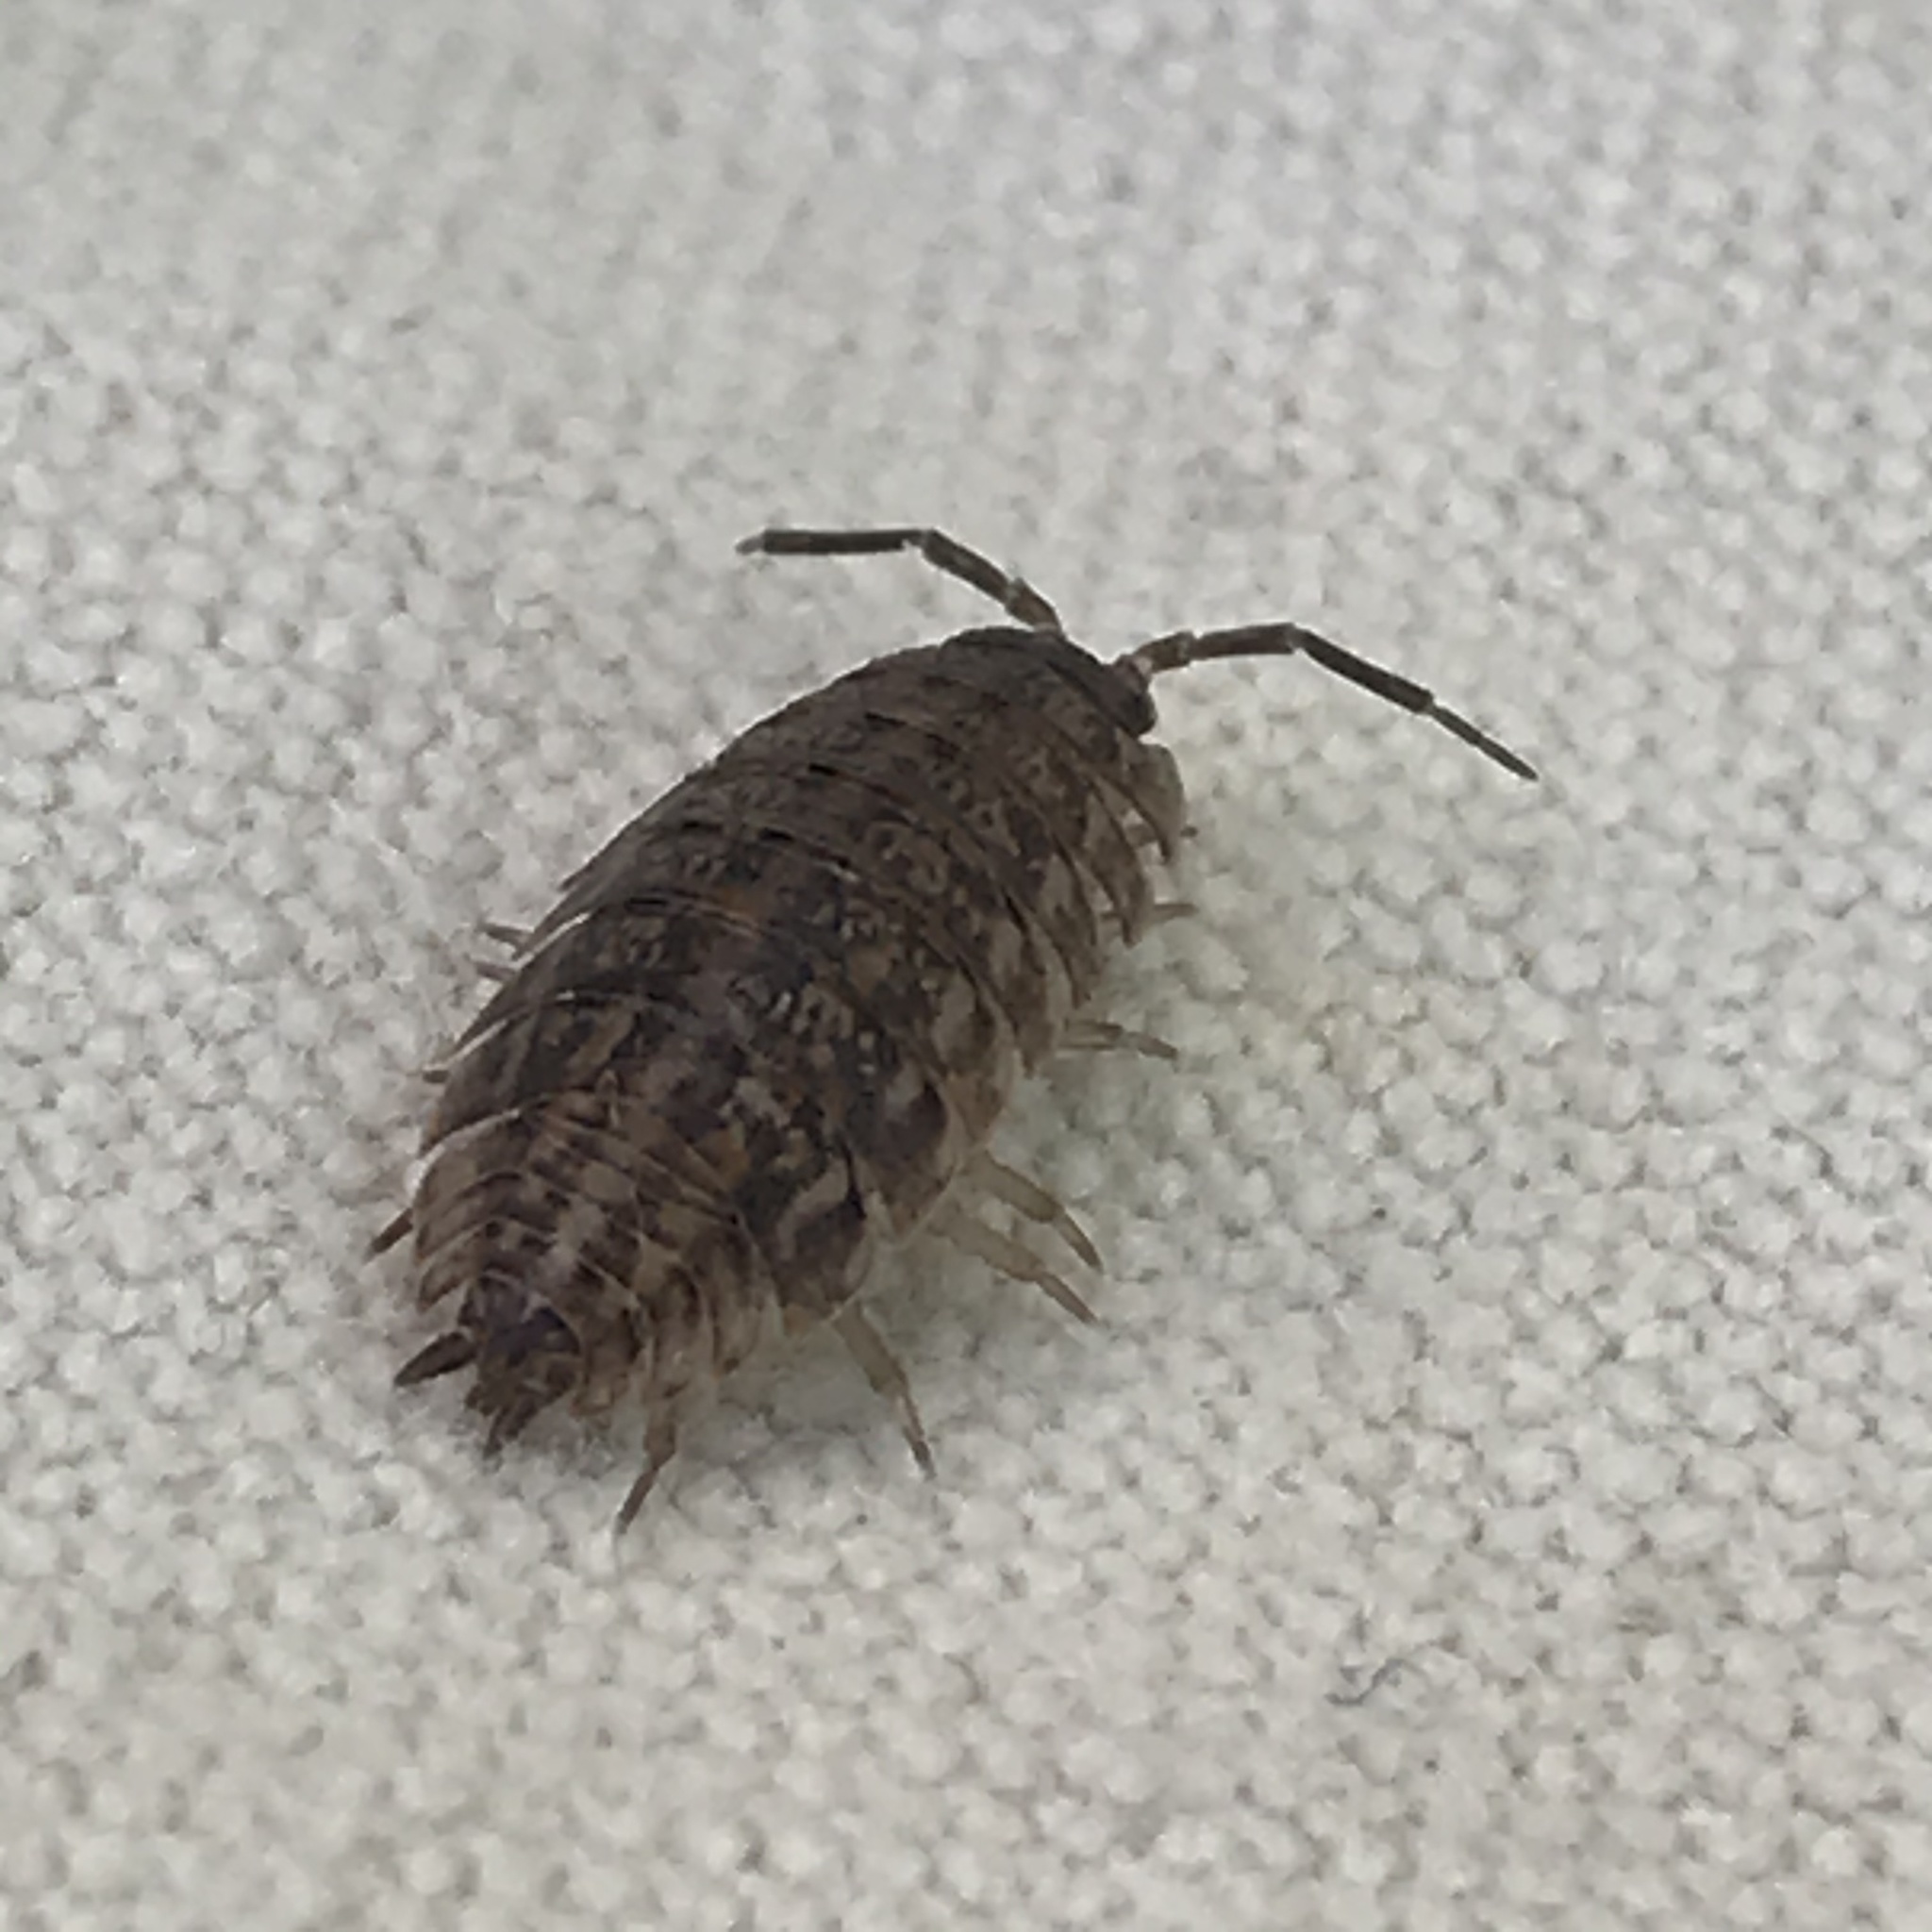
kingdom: Animalia
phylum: Arthropoda
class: Malacostraca
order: Isopoda
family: Trachelipodidae
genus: Trachelipus
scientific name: Trachelipus rathkii
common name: Isopod
